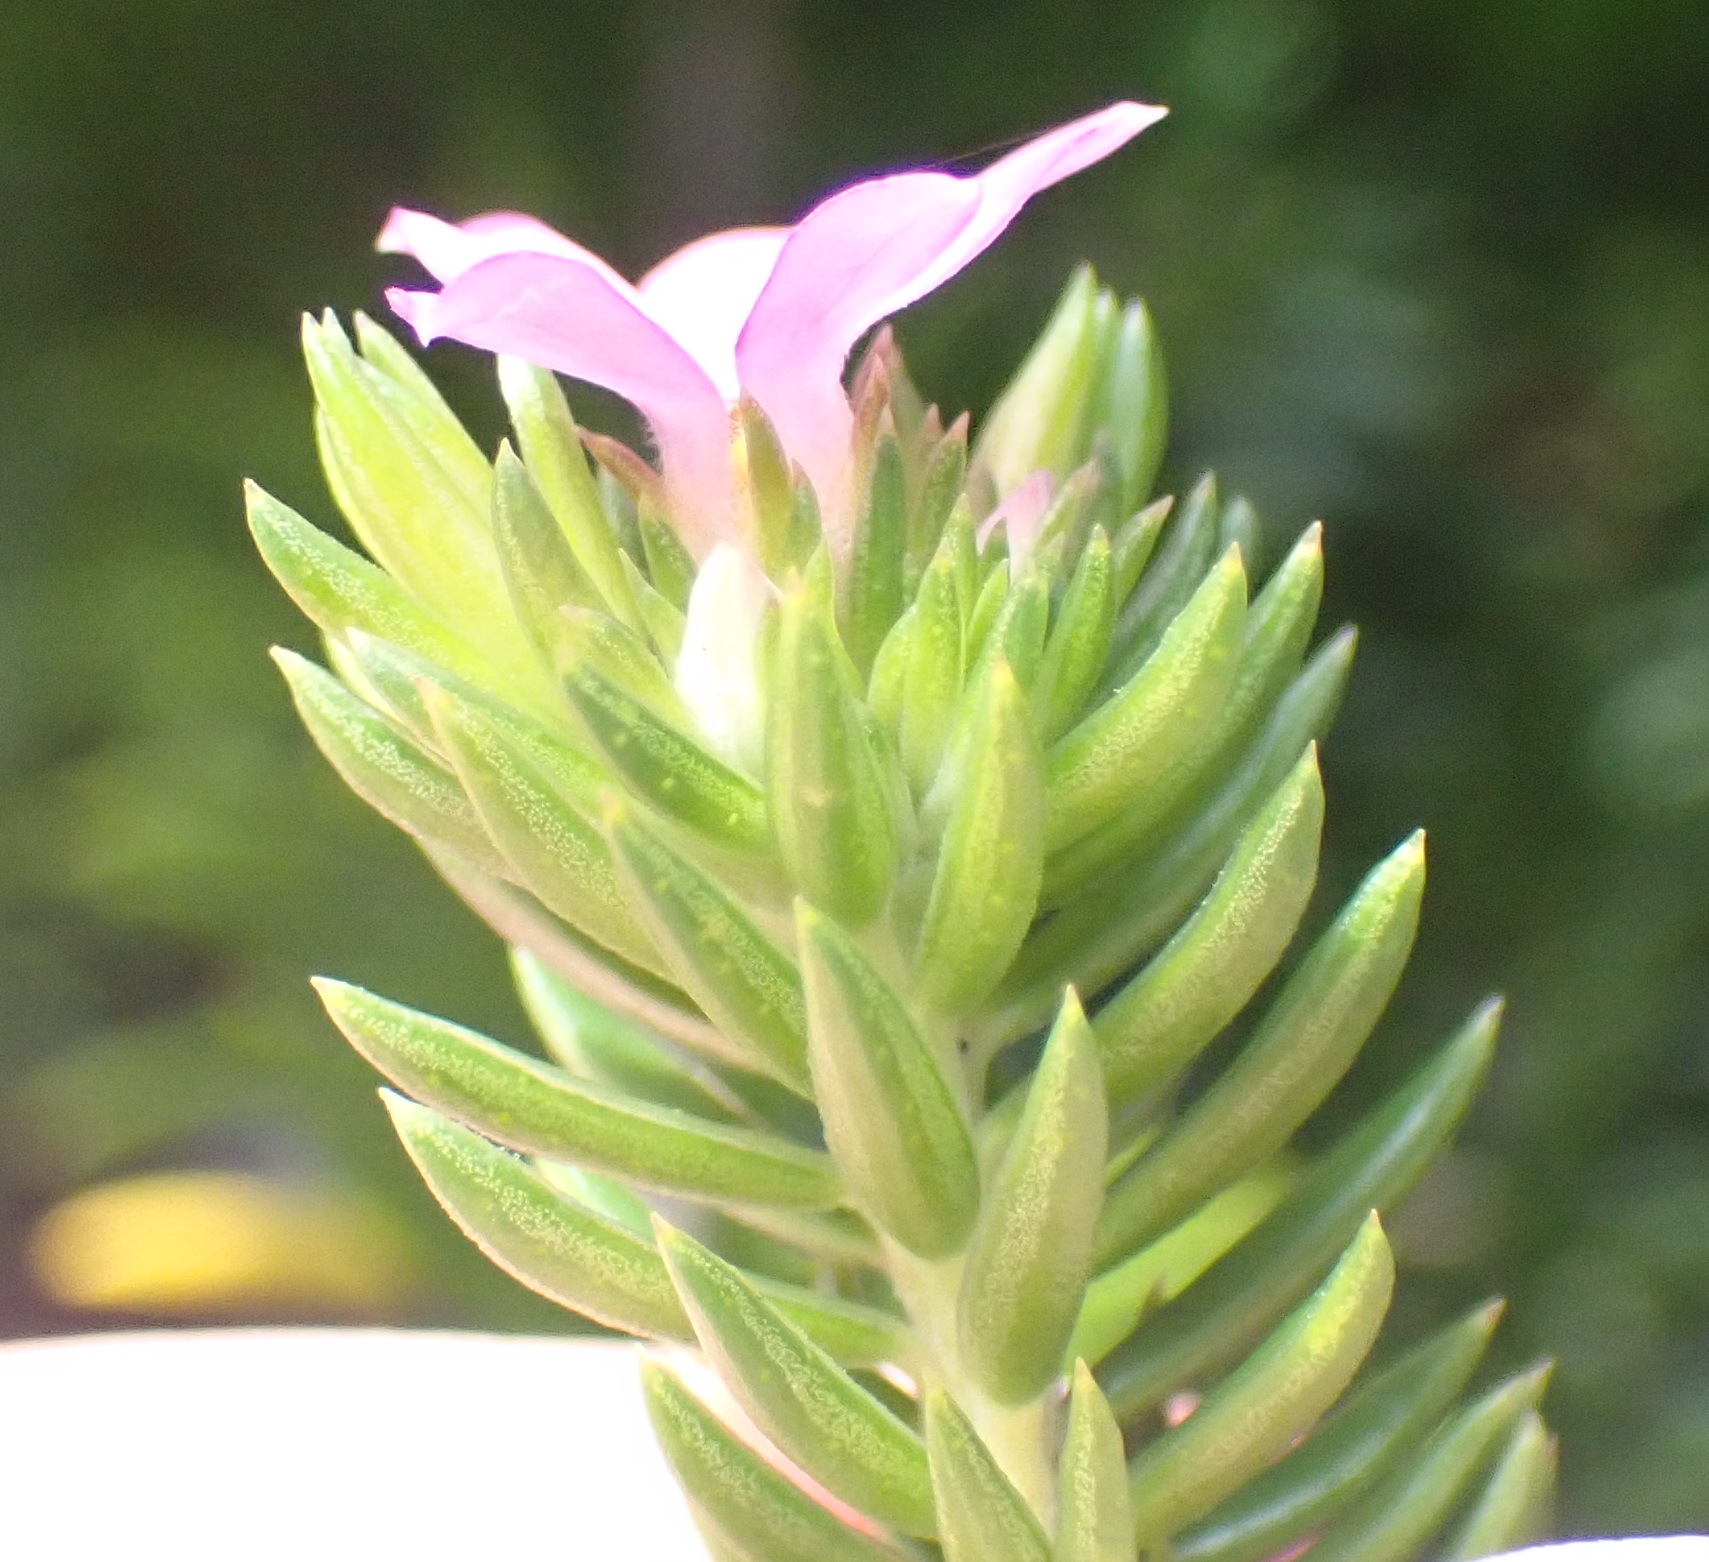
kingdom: Plantae
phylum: Tracheophyta
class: Magnoliopsida
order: Sapindales
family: Rutaceae
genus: Acmadenia
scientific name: Acmadenia alternifolia
